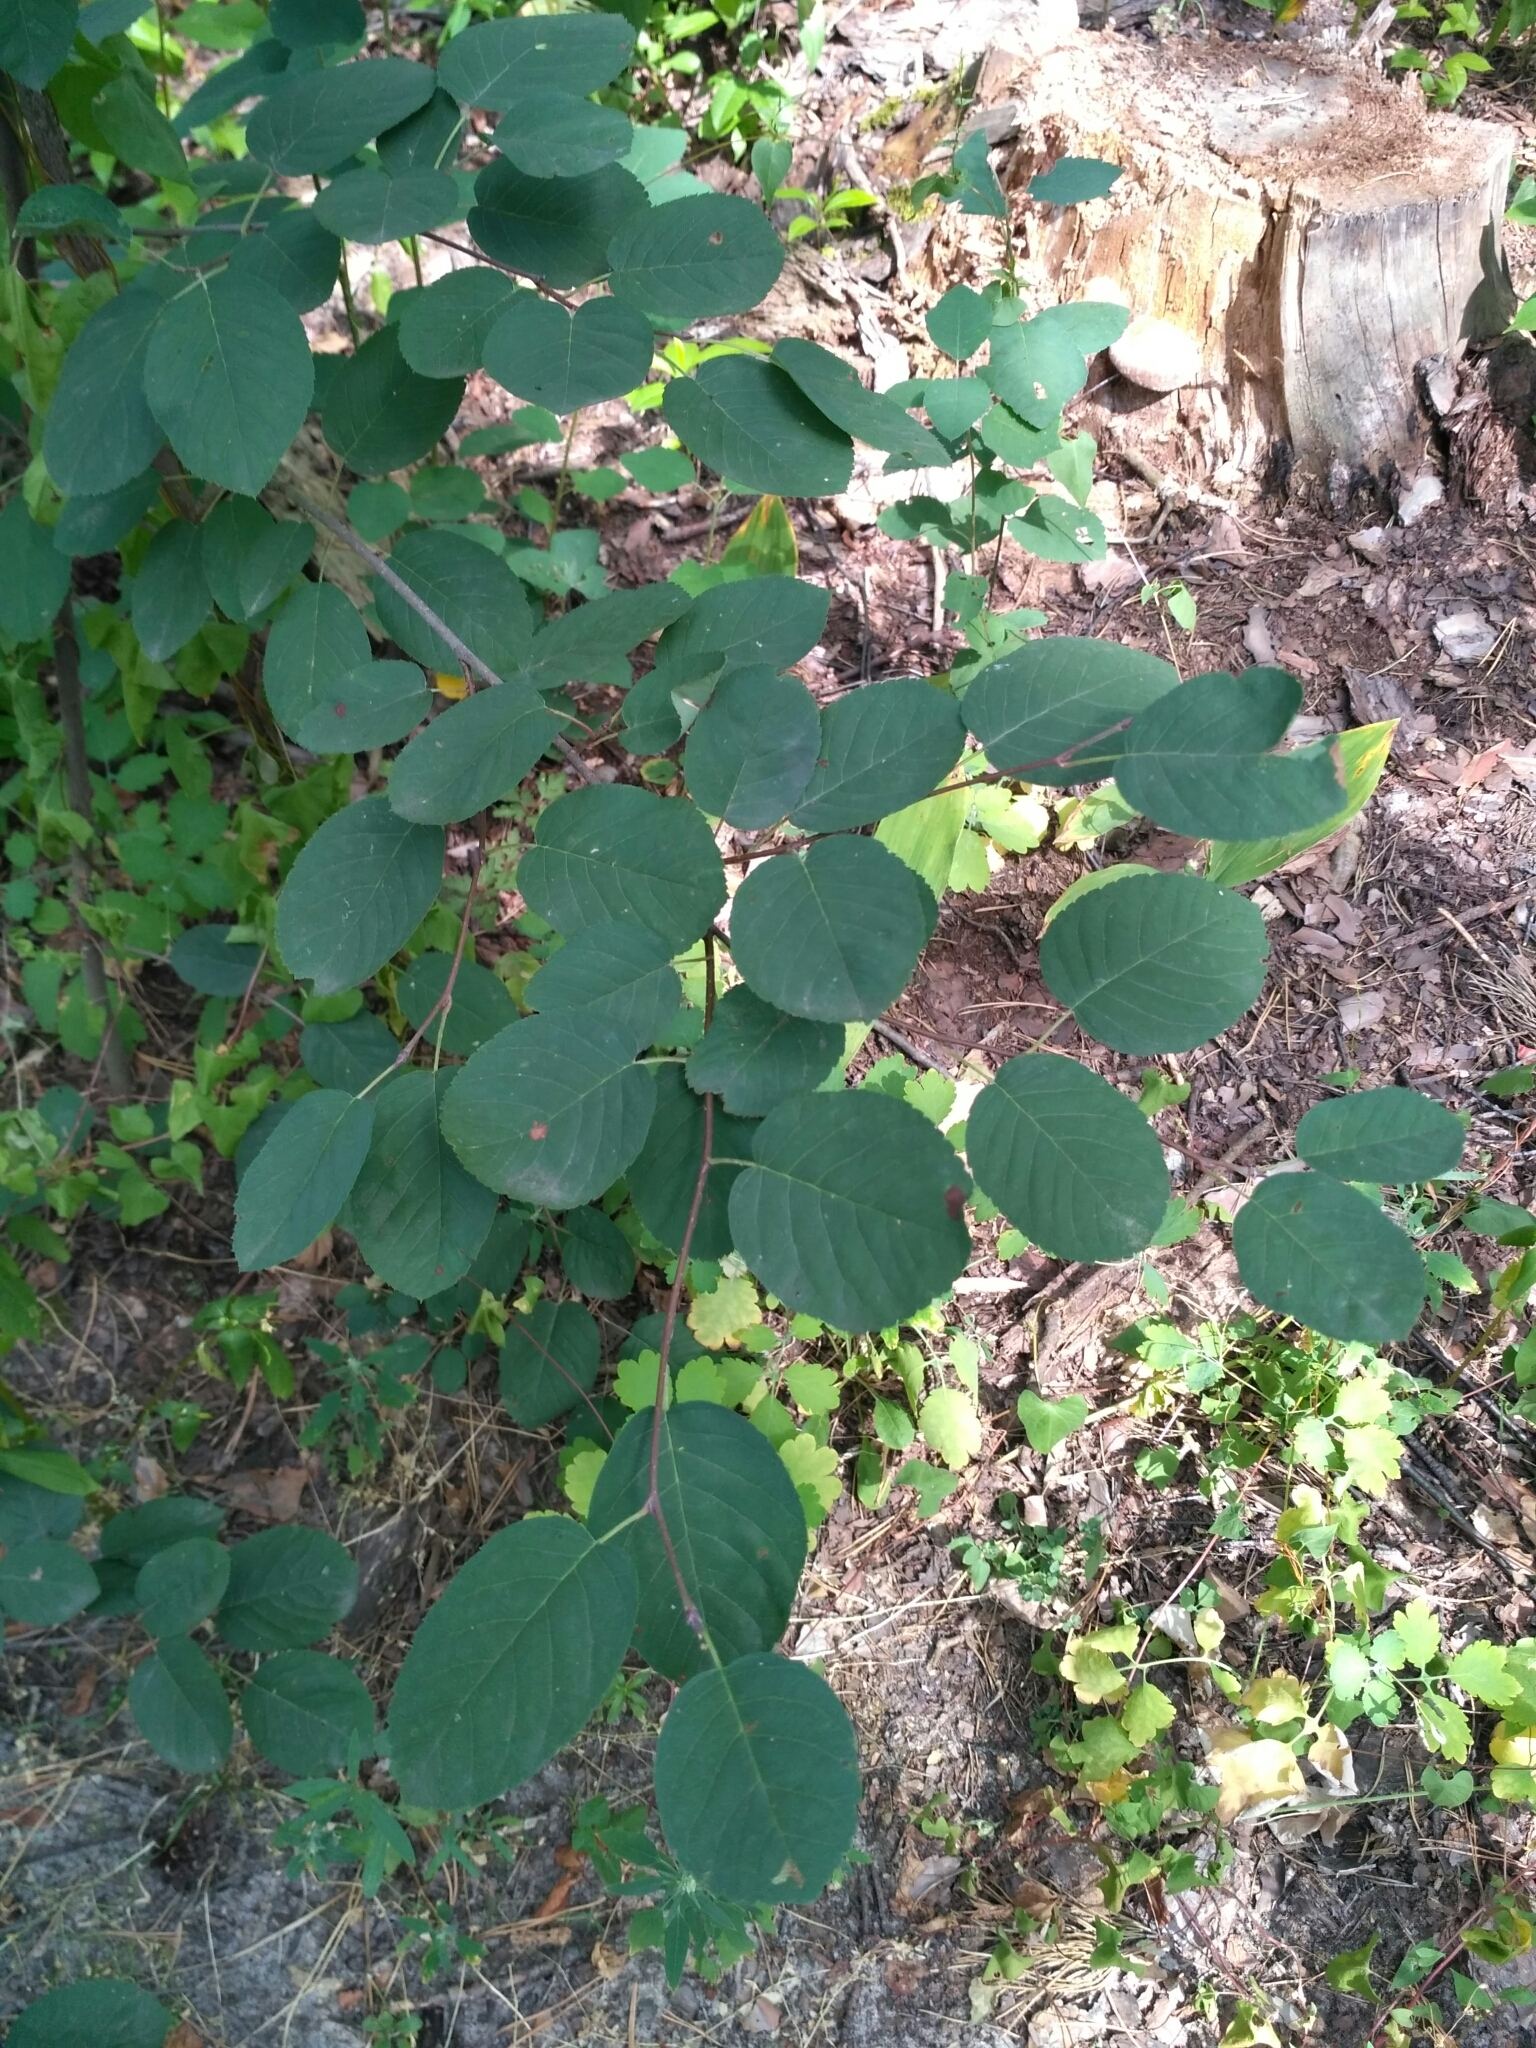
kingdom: Plantae
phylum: Tracheophyta
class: Magnoliopsida
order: Rosales
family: Rosaceae
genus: Amelanchier
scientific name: Amelanchier
